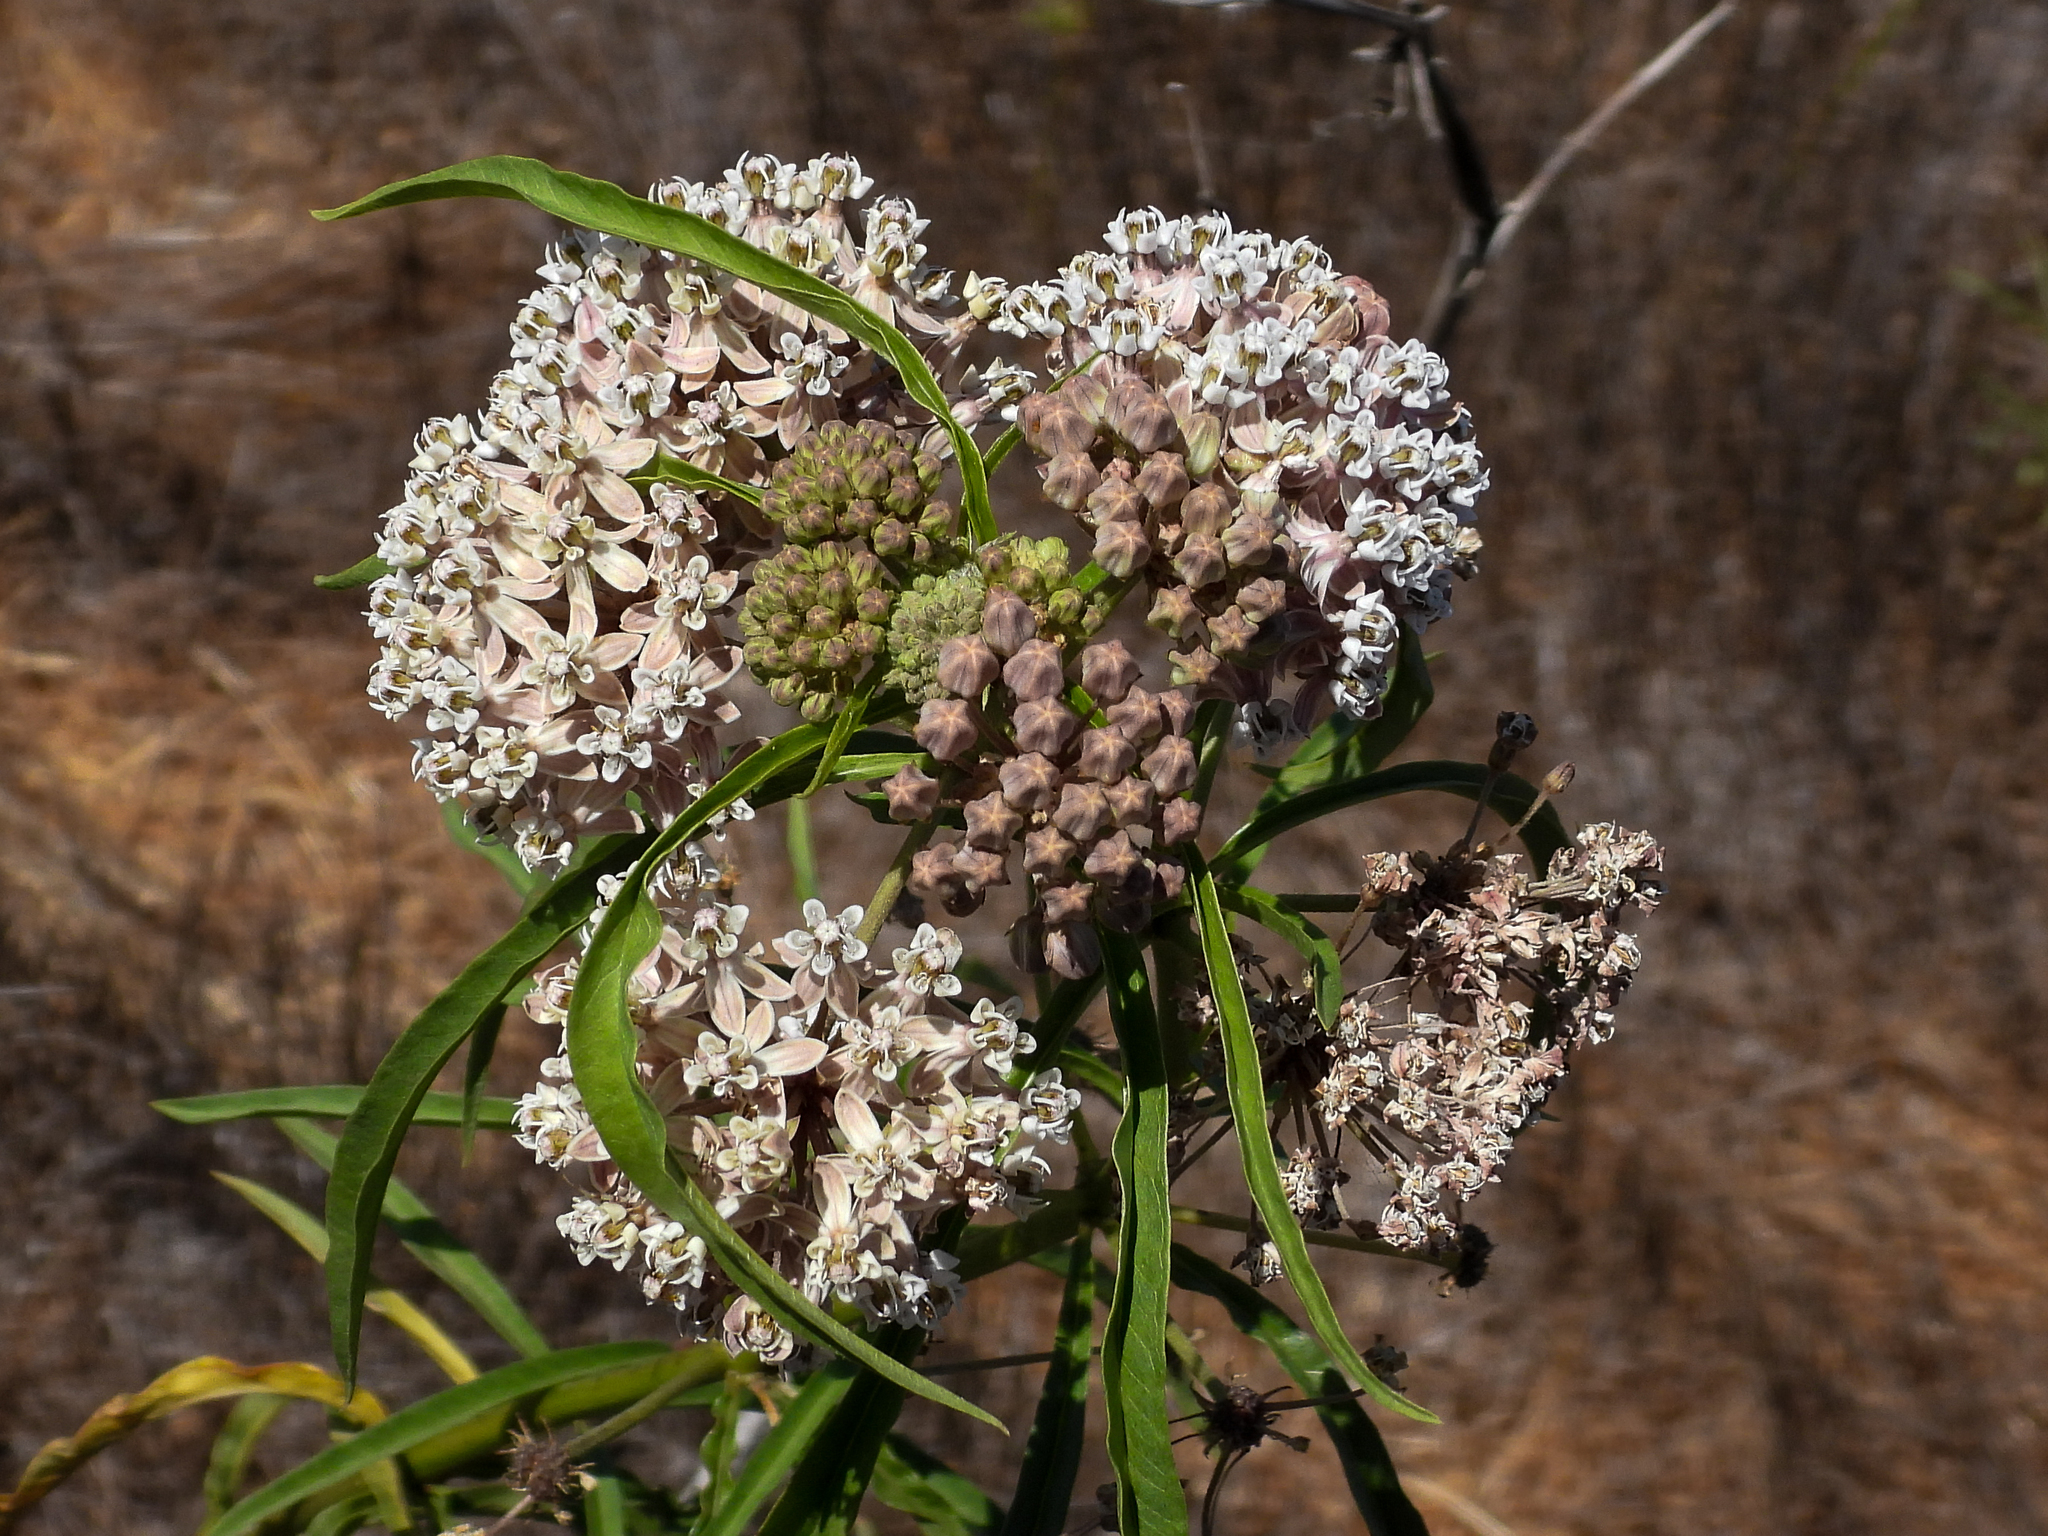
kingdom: Plantae
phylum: Tracheophyta
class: Magnoliopsida
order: Gentianales
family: Apocynaceae
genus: Asclepias
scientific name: Asclepias fascicularis
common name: Mexican milkweed
